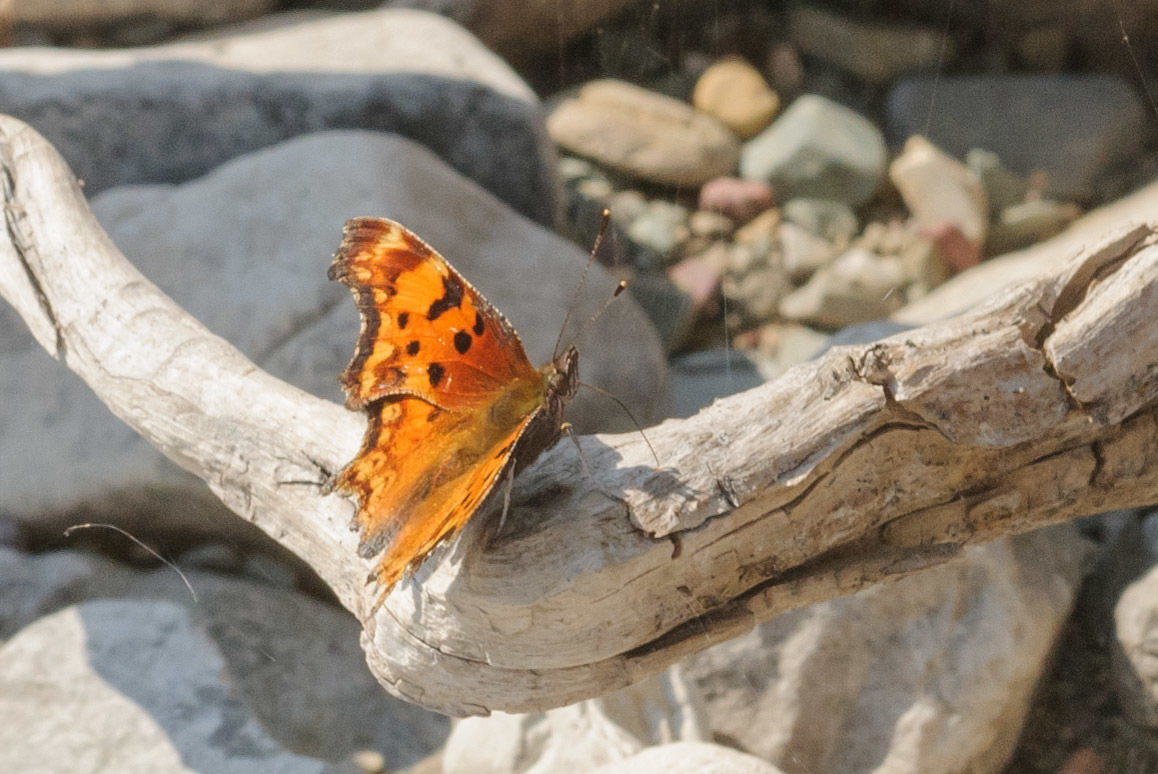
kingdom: Animalia
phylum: Arthropoda
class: Insecta
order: Lepidoptera
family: Nymphalidae
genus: Polygonia
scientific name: Polygonia gracilis
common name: Hoary comma
